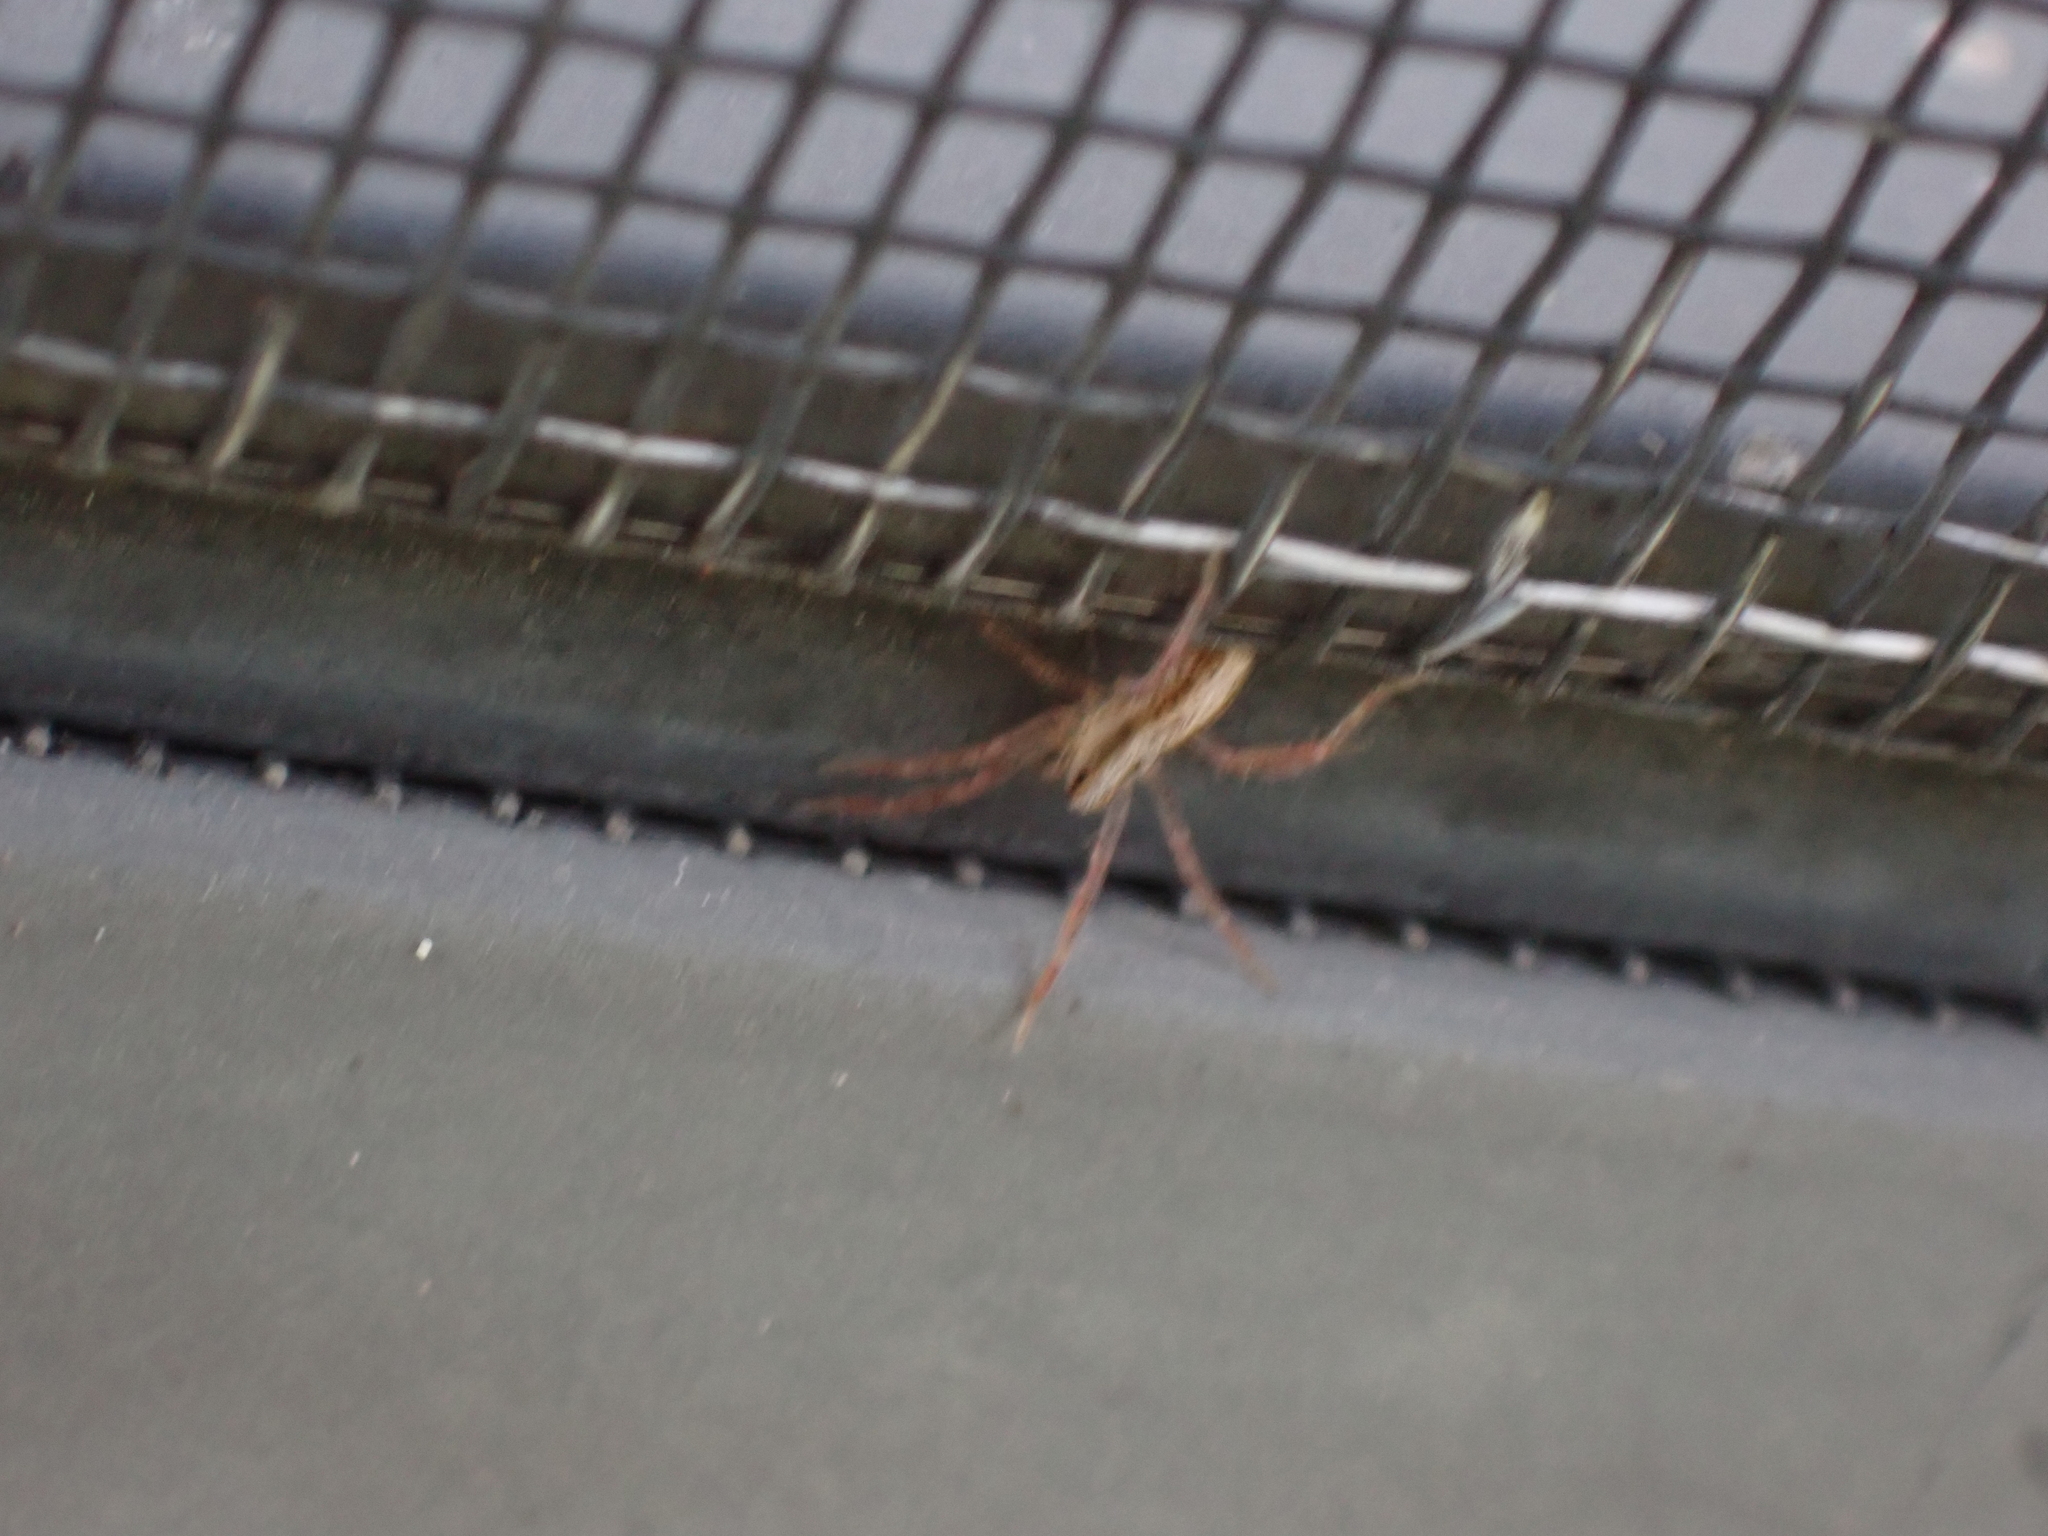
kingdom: Animalia
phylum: Arthropoda
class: Arachnida
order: Araneae
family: Lycosidae
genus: Rabidosa
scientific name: Rabidosa hentzi
